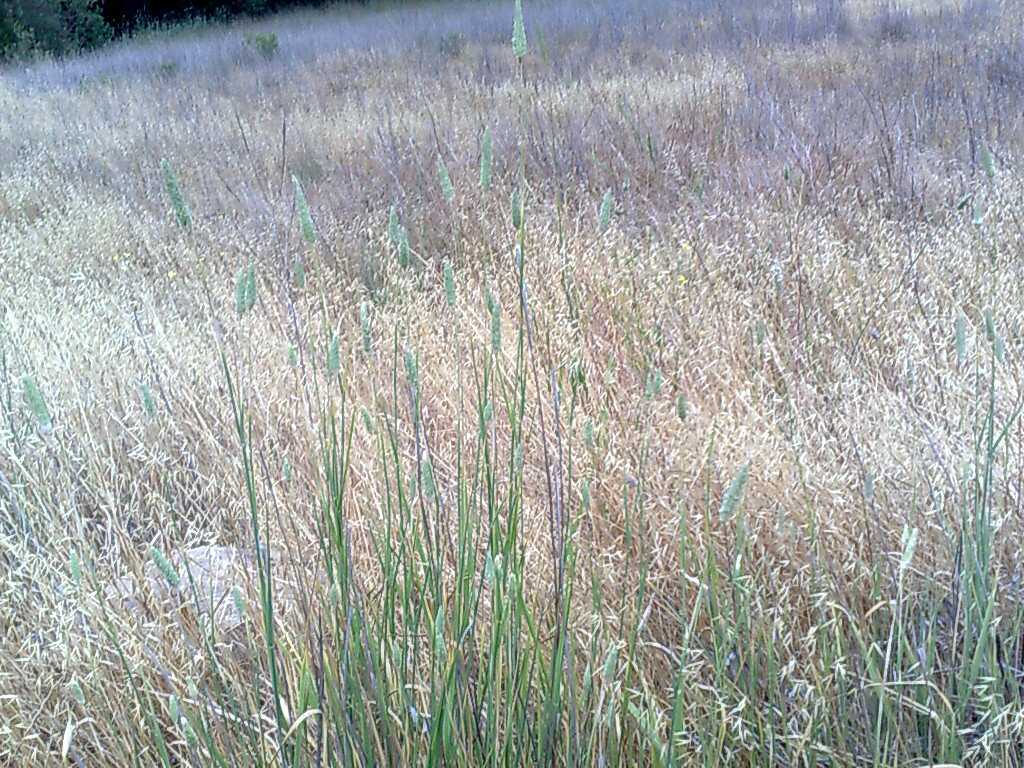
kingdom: Plantae
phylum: Tracheophyta
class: Liliopsida
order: Poales
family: Poaceae
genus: Phalaris
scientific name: Phalaris aquatica
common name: Bulbous canary-grass
